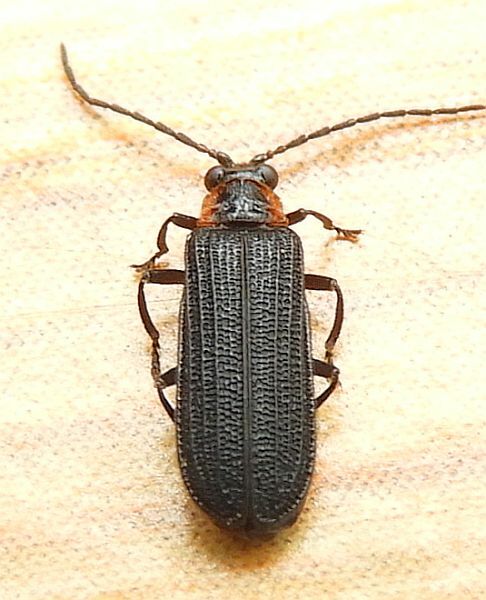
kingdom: Animalia
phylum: Arthropoda
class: Insecta
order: Coleoptera
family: Lycidae
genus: Eropterus
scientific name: Eropterus trilineatus
